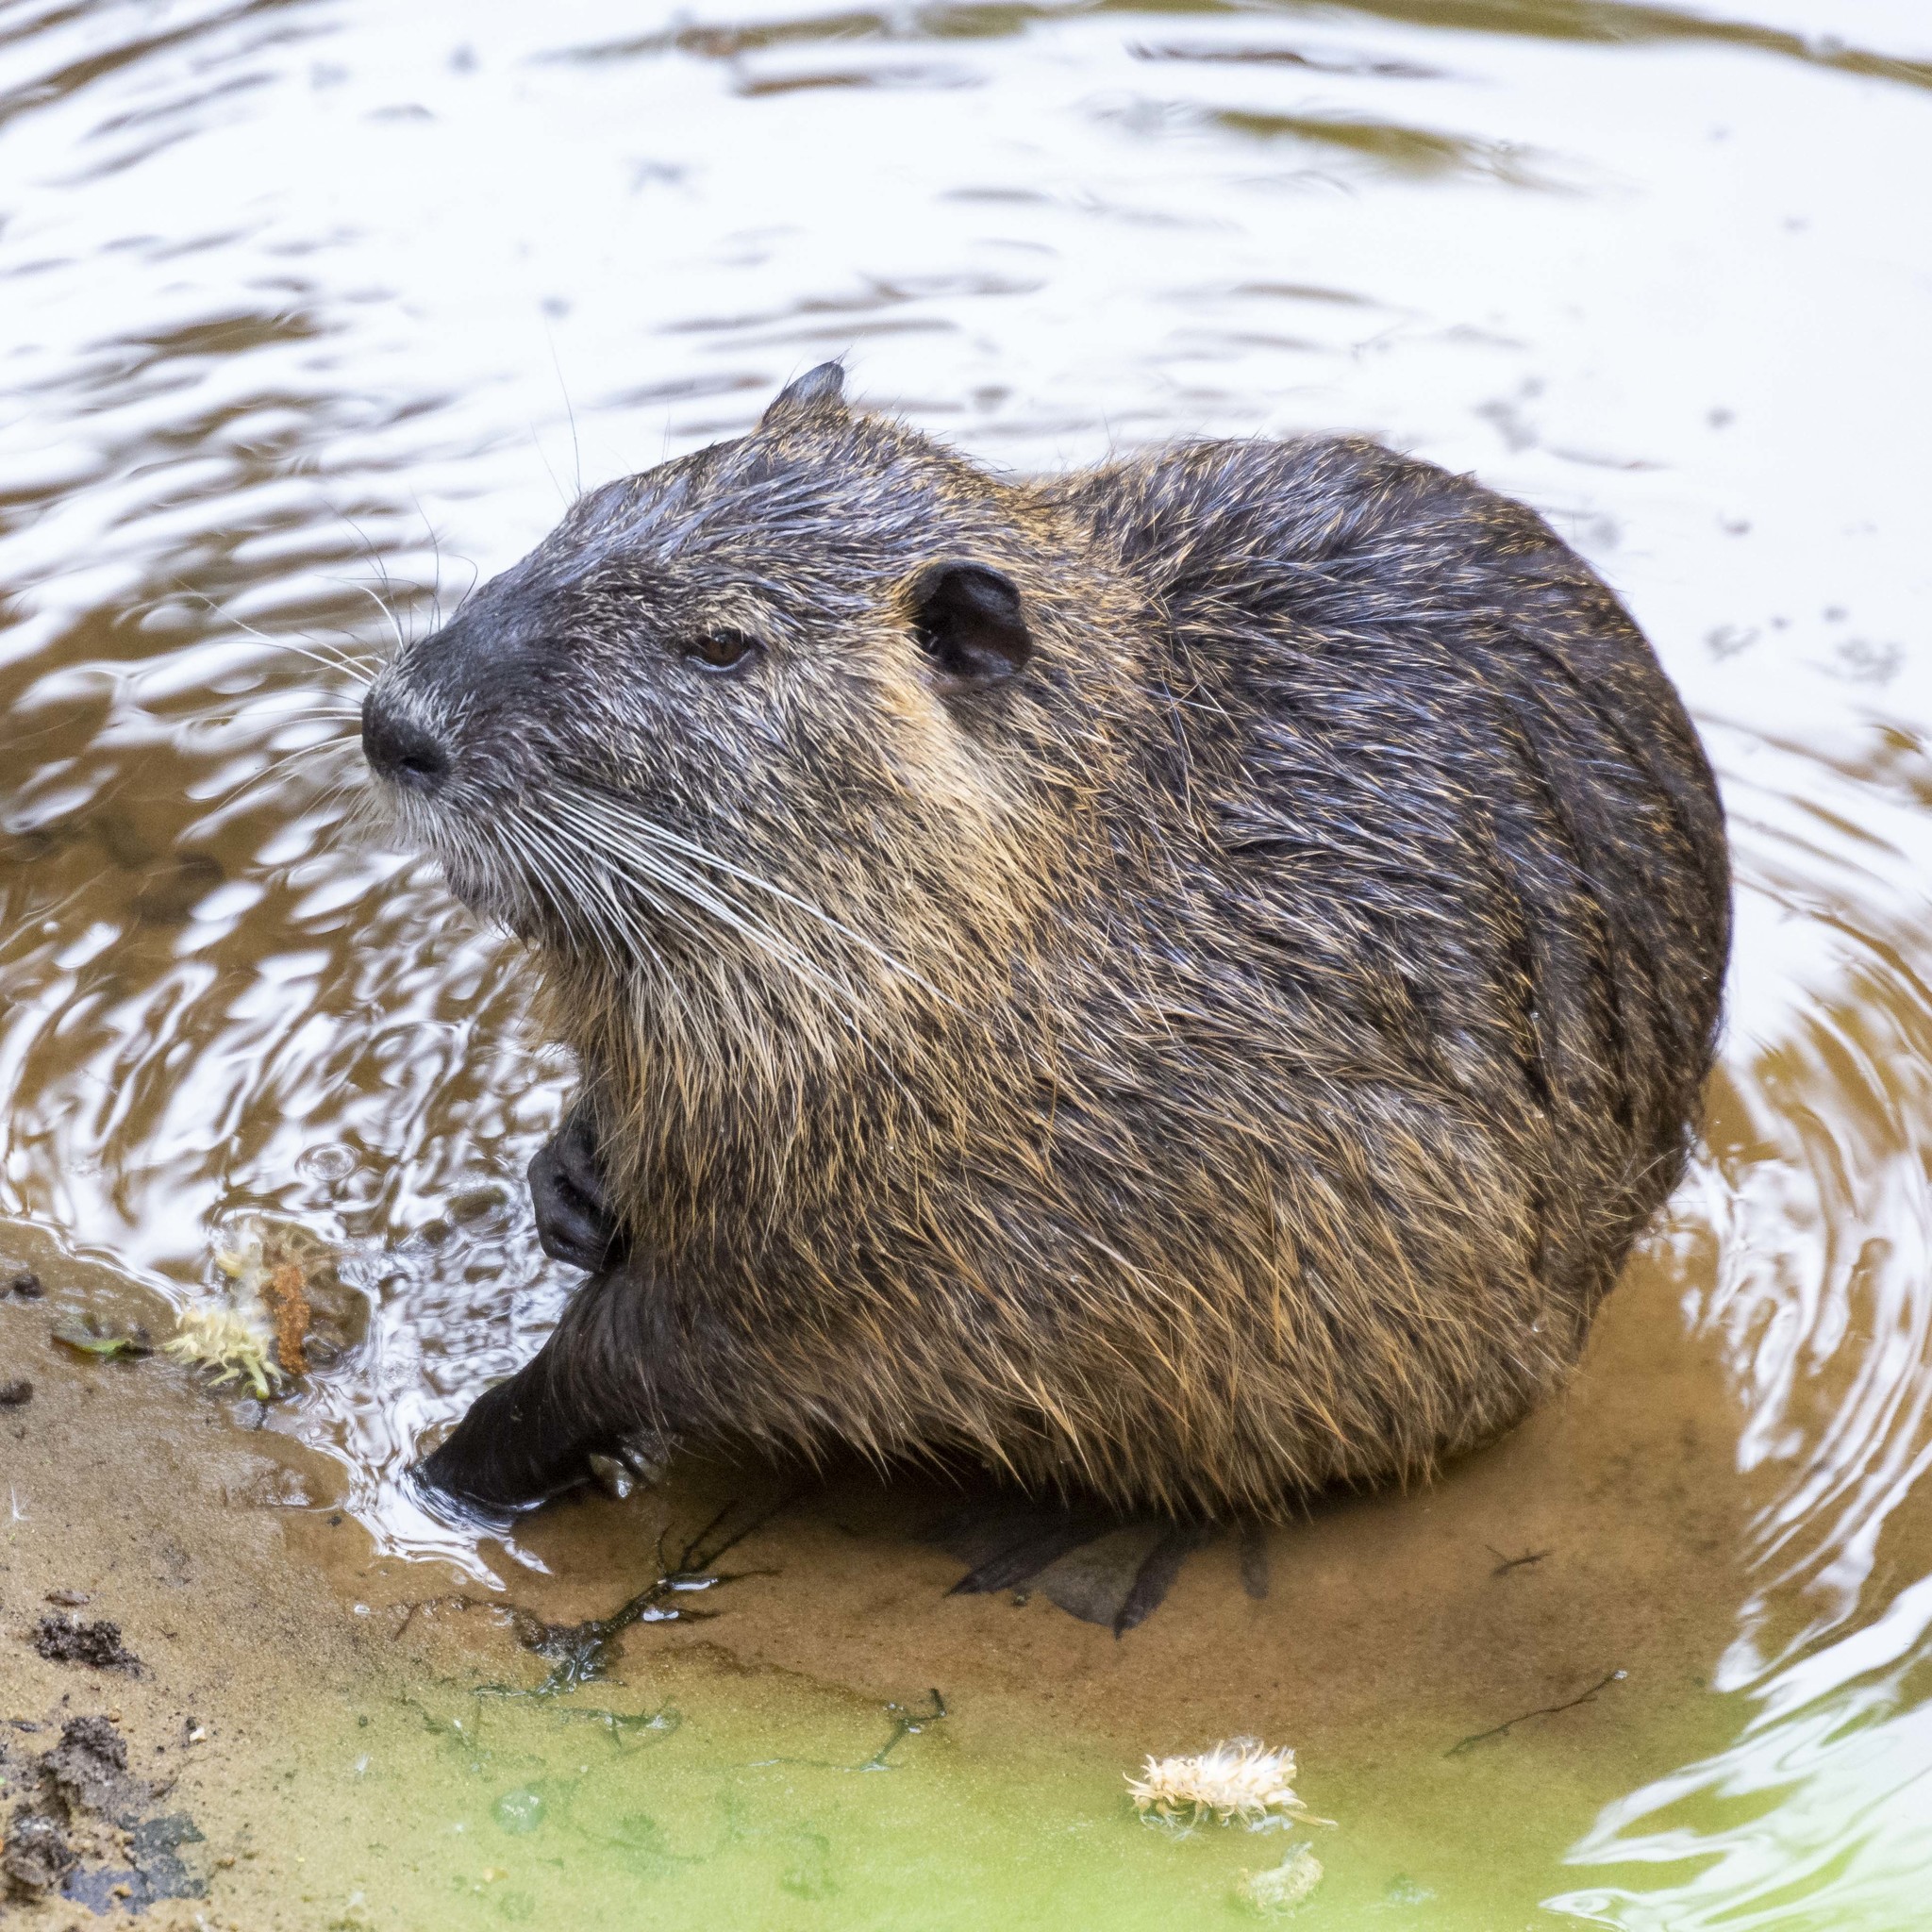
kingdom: Animalia
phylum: Chordata
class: Mammalia
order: Rodentia
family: Myocastoridae
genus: Myocastor
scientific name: Myocastor coypus
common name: Coypu
